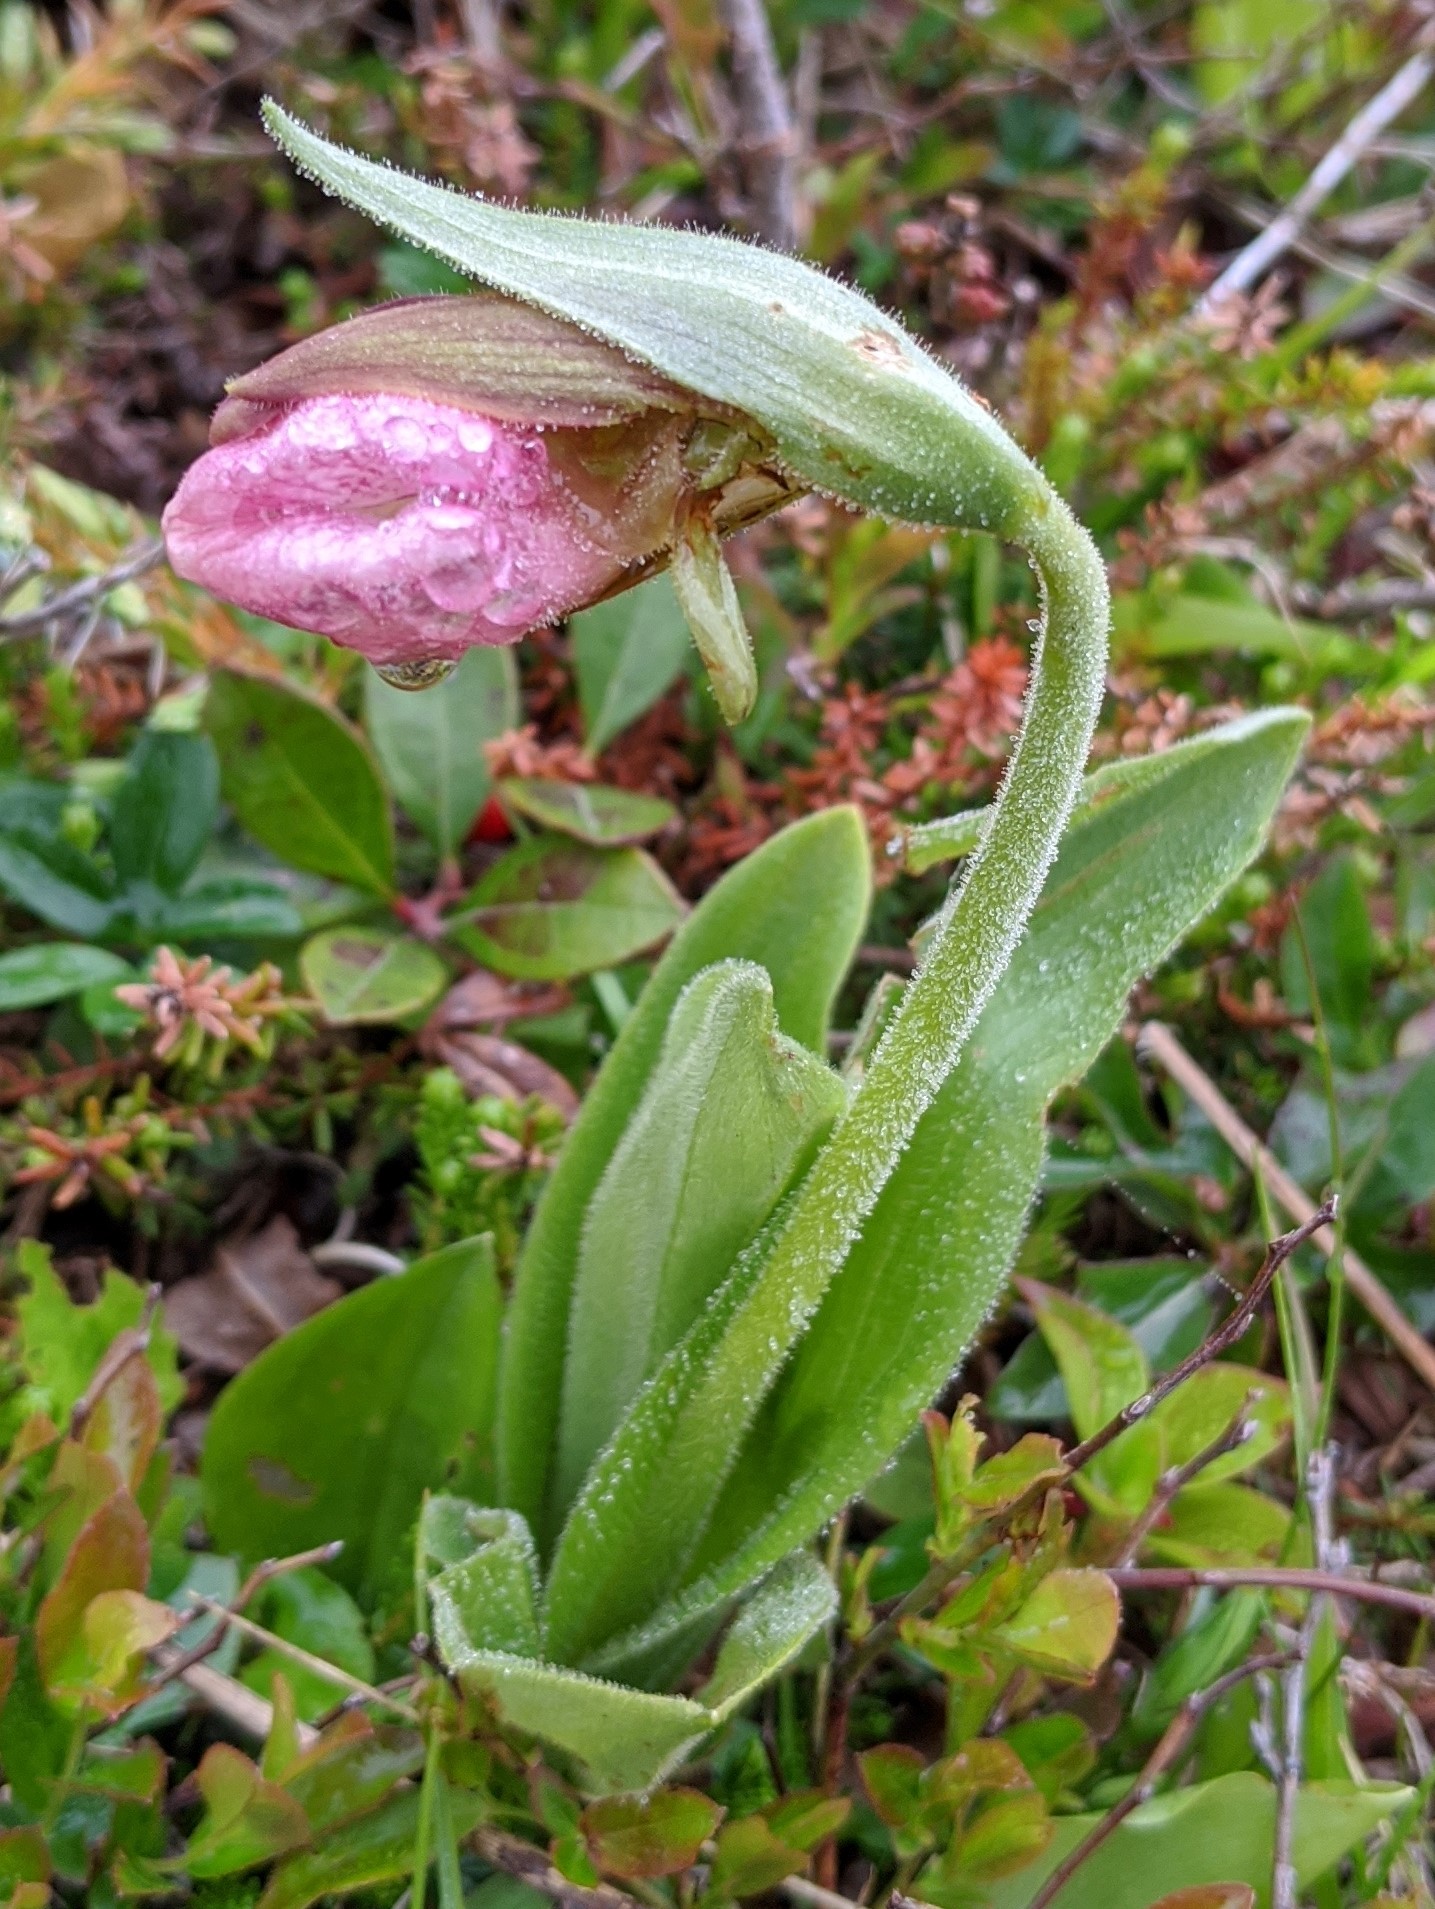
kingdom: Plantae
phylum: Tracheophyta
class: Liliopsida
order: Asparagales
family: Orchidaceae
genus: Cypripedium
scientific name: Cypripedium acaule
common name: Pink lady's-slipper
